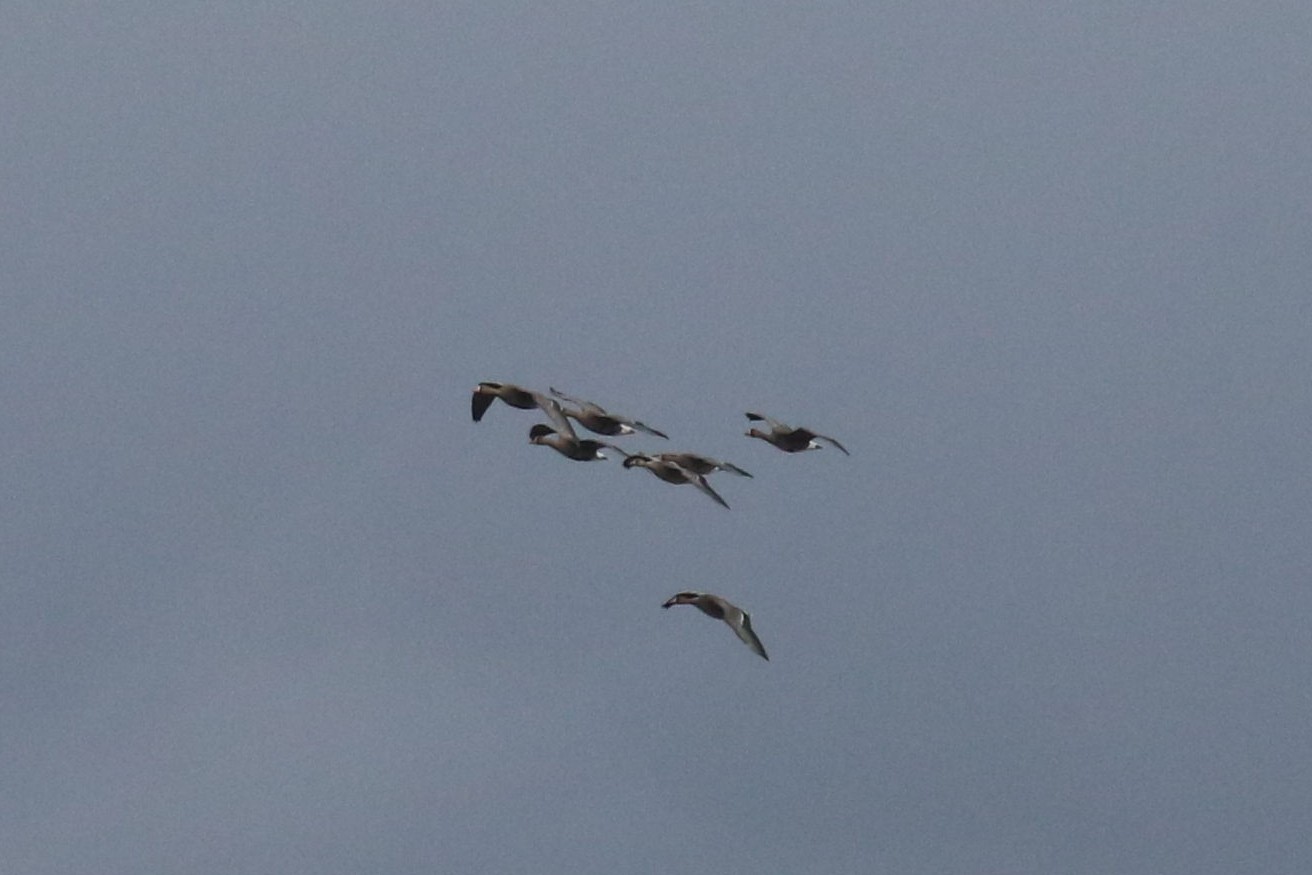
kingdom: Animalia
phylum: Chordata
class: Aves
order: Anseriformes
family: Anatidae
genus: Anser
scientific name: Anser albifrons
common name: Greater white-fronted goose
